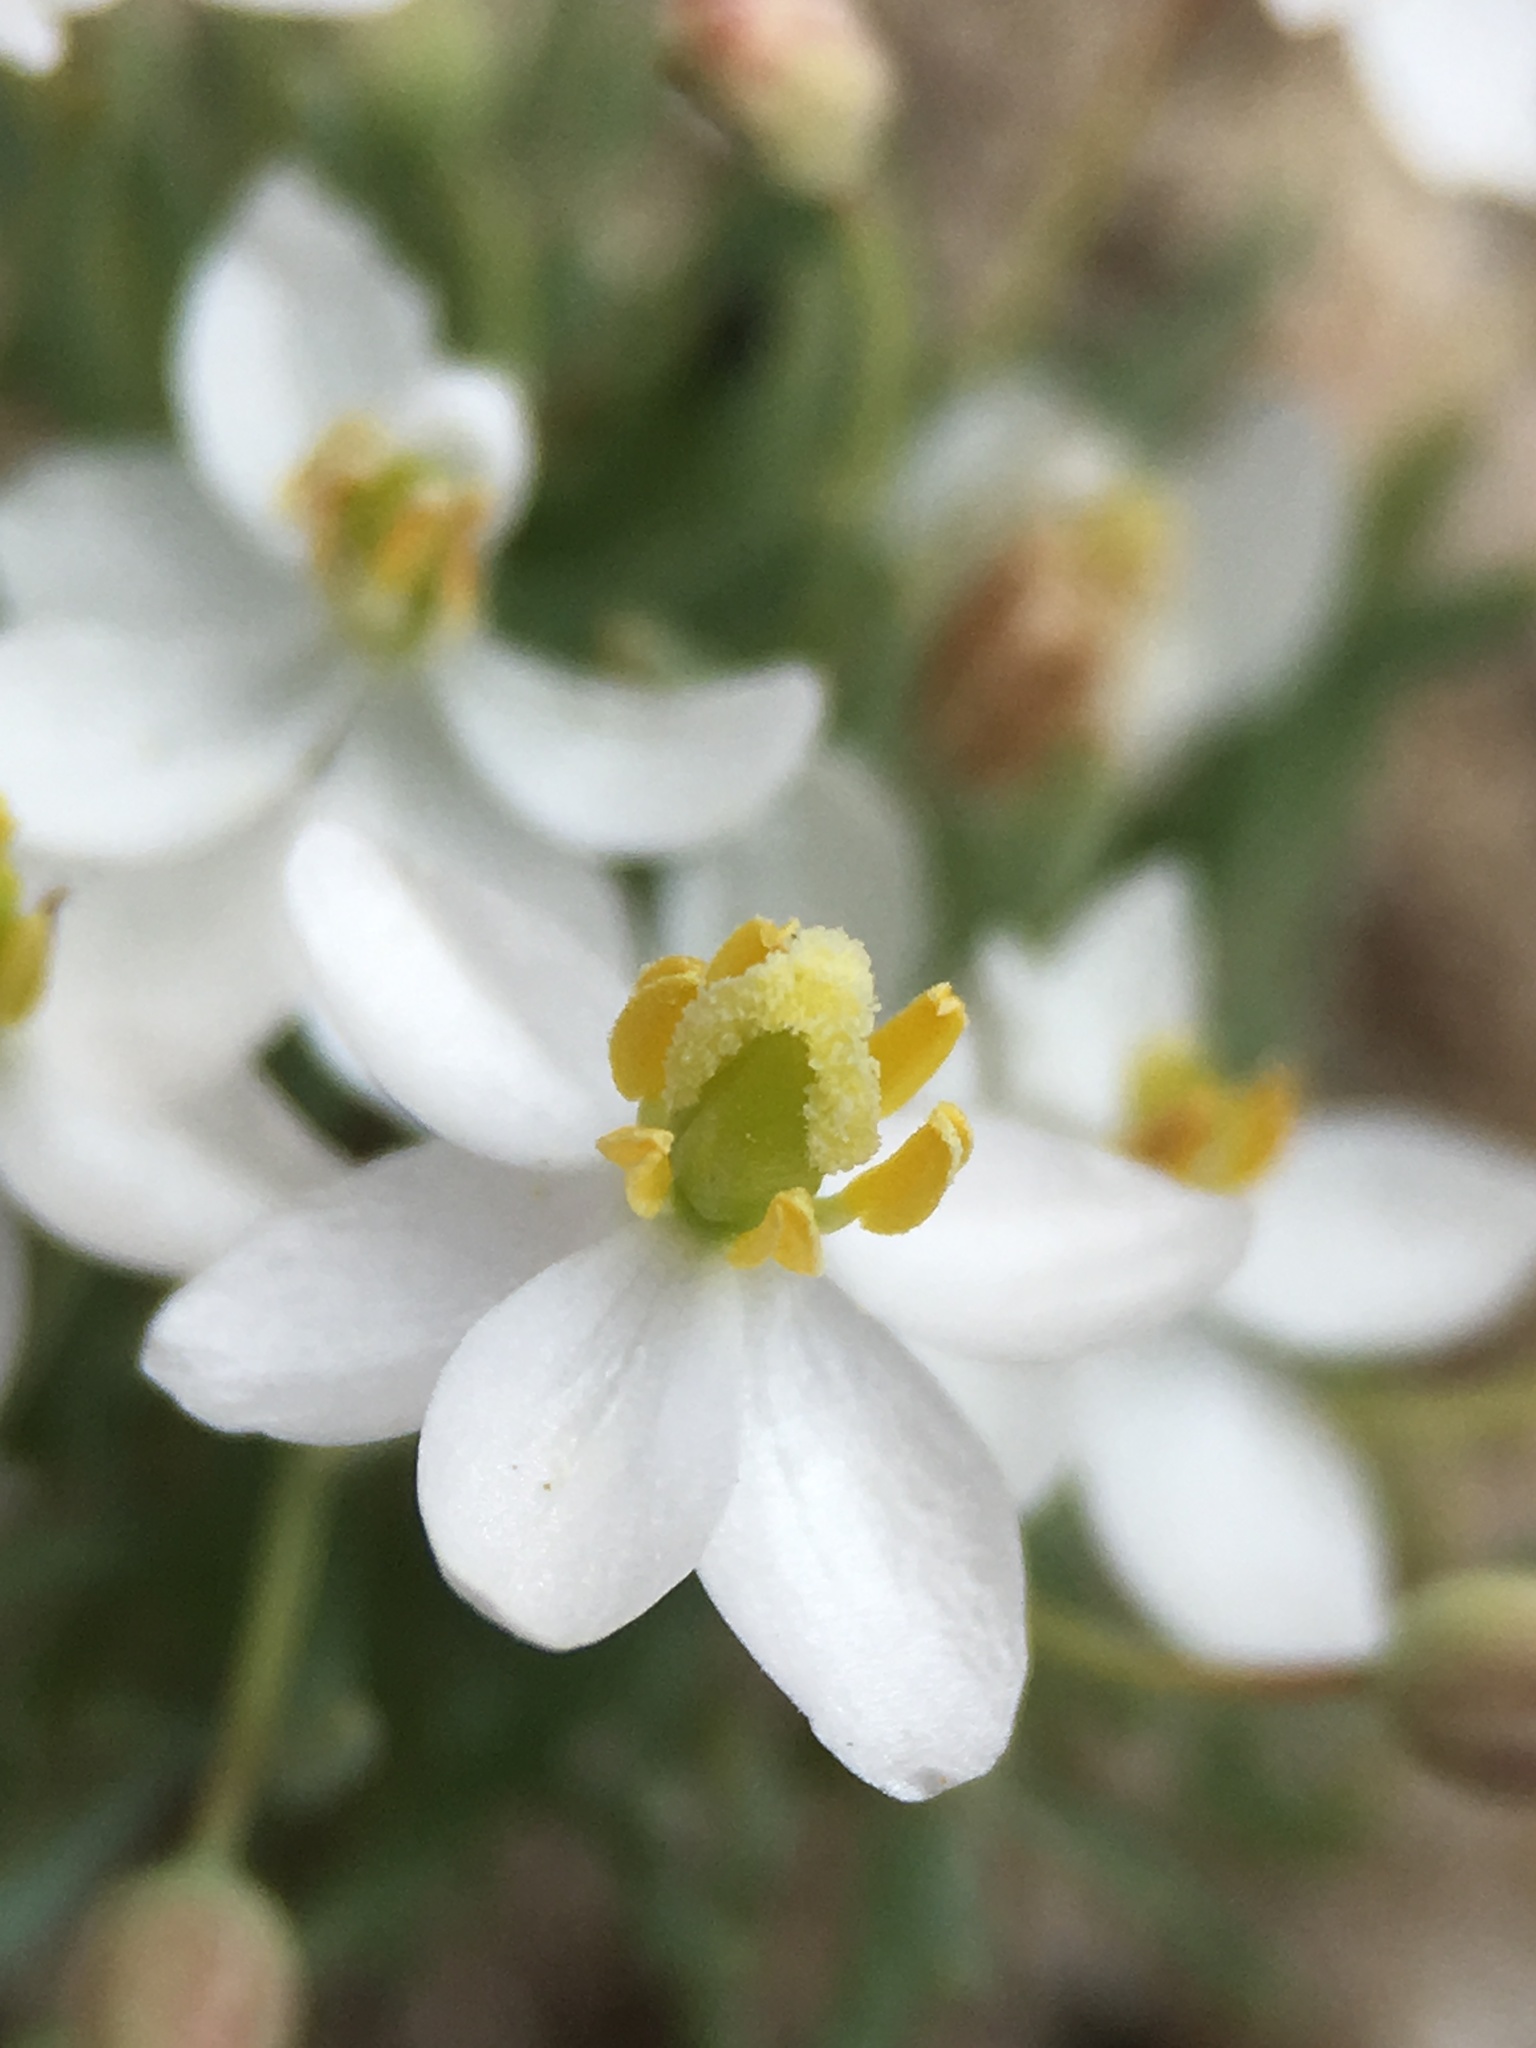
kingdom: Plantae
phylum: Tracheophyta
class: Magnoliopsida
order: Ranunculales
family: Papaveraceae
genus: Canbya
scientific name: Canbya candida
